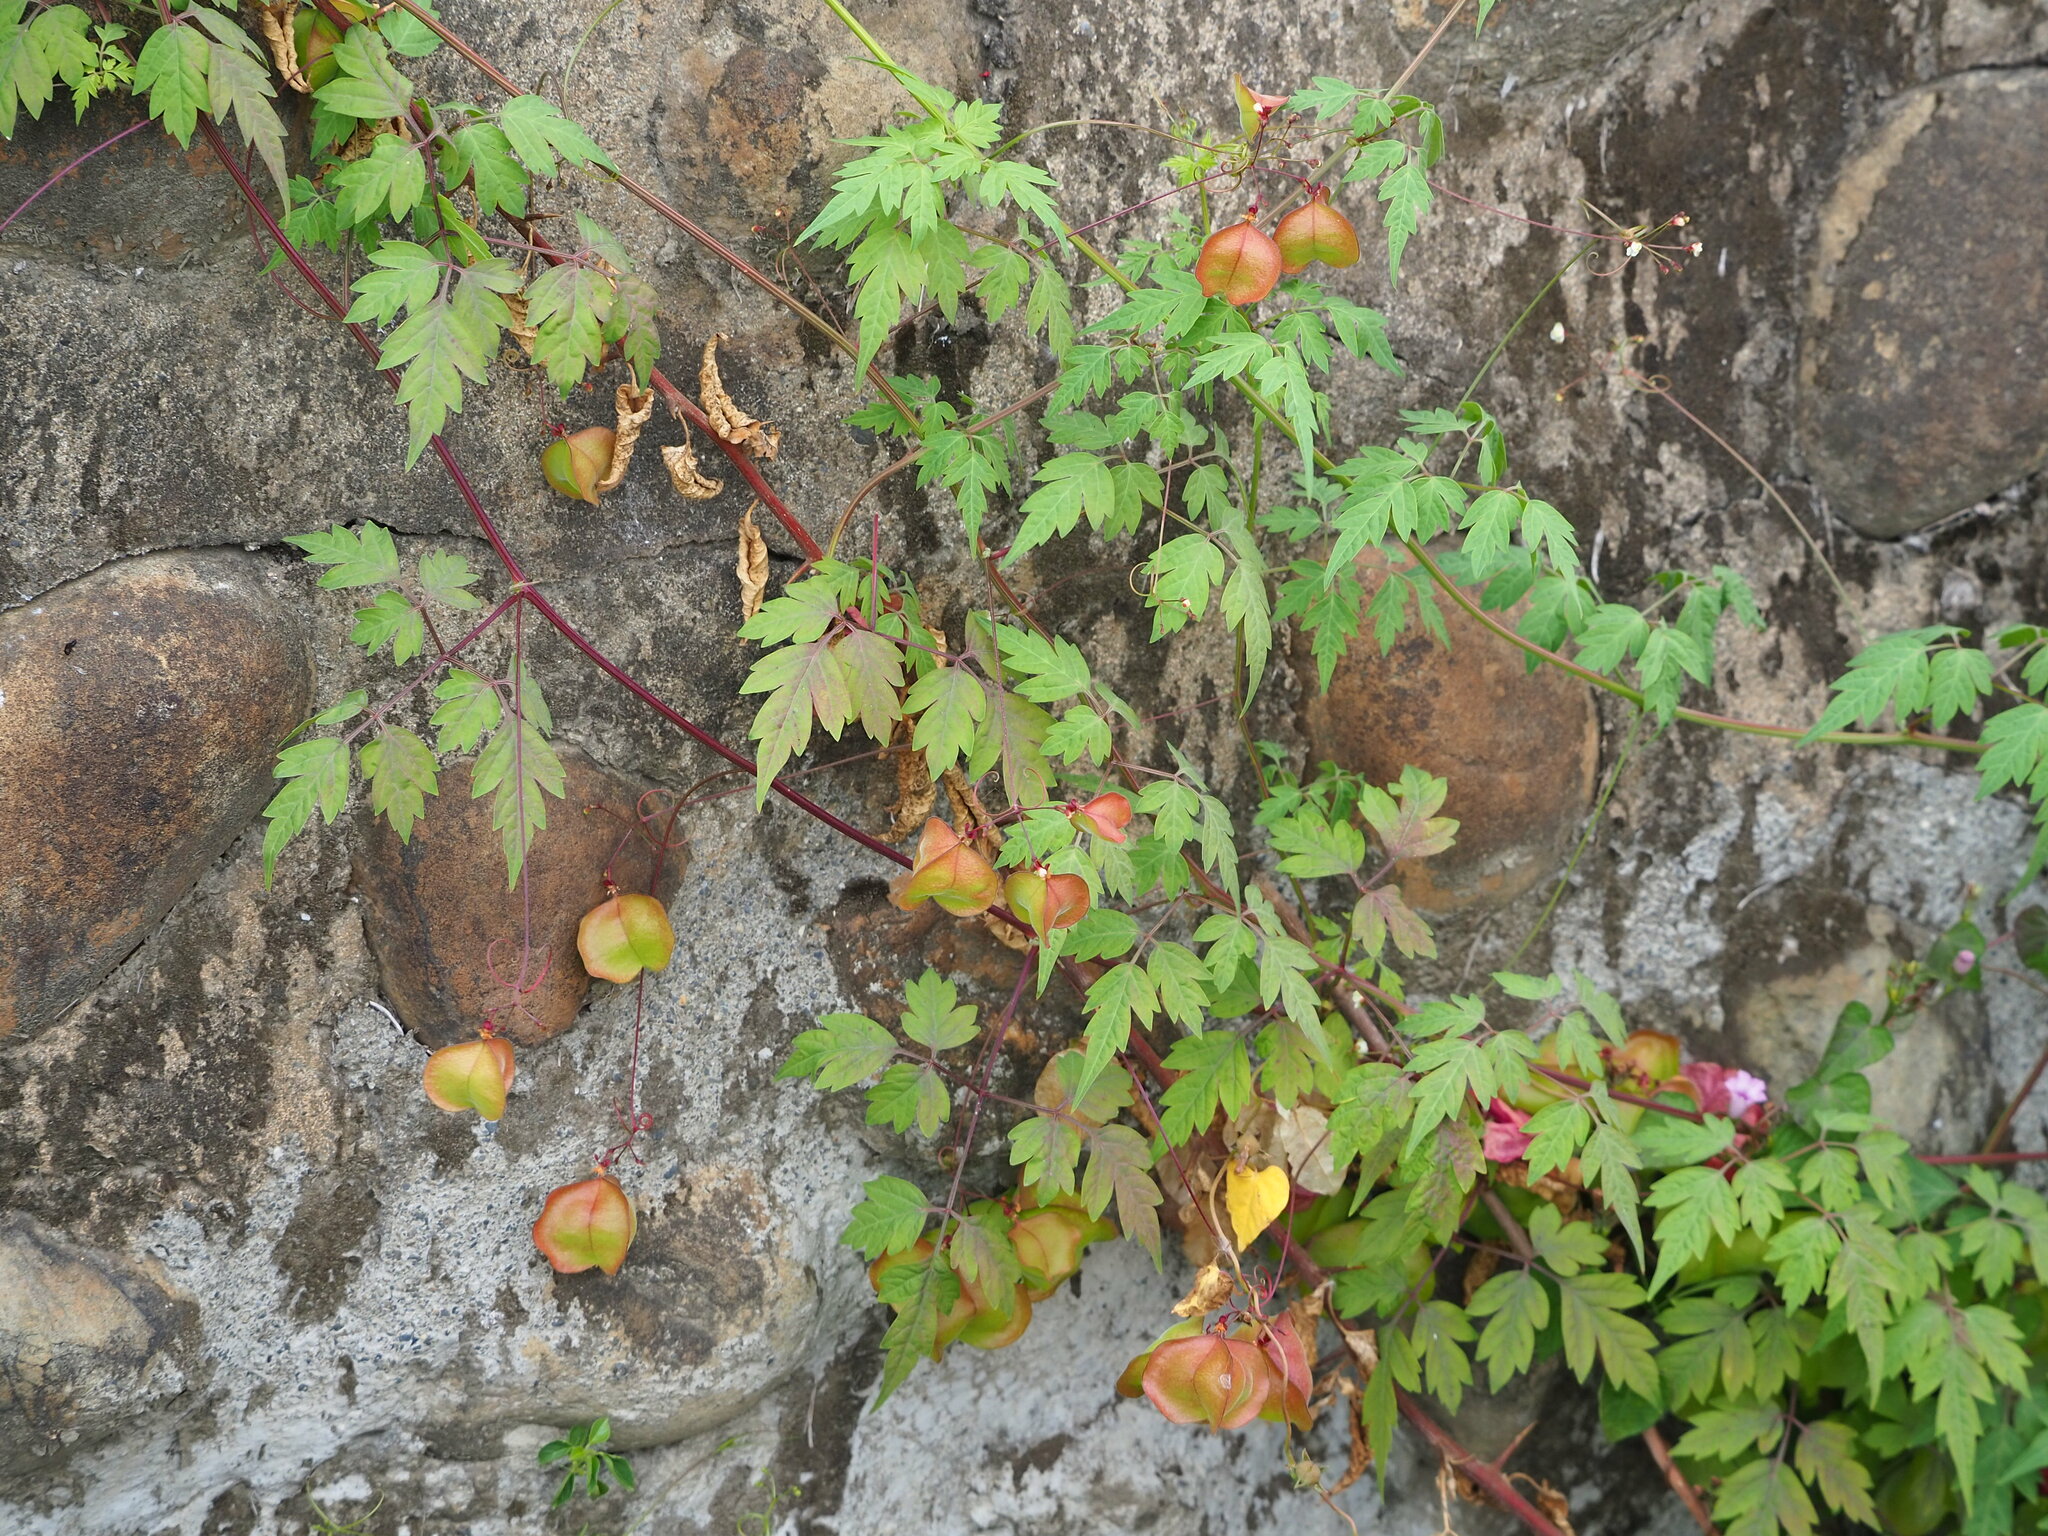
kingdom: Plantae
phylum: Tracheophyta
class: Magnoliopsida
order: Sapindales
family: Sapindaceae
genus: Cardiospermum
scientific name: Cardiospermum halicacabum
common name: Balloon vine
